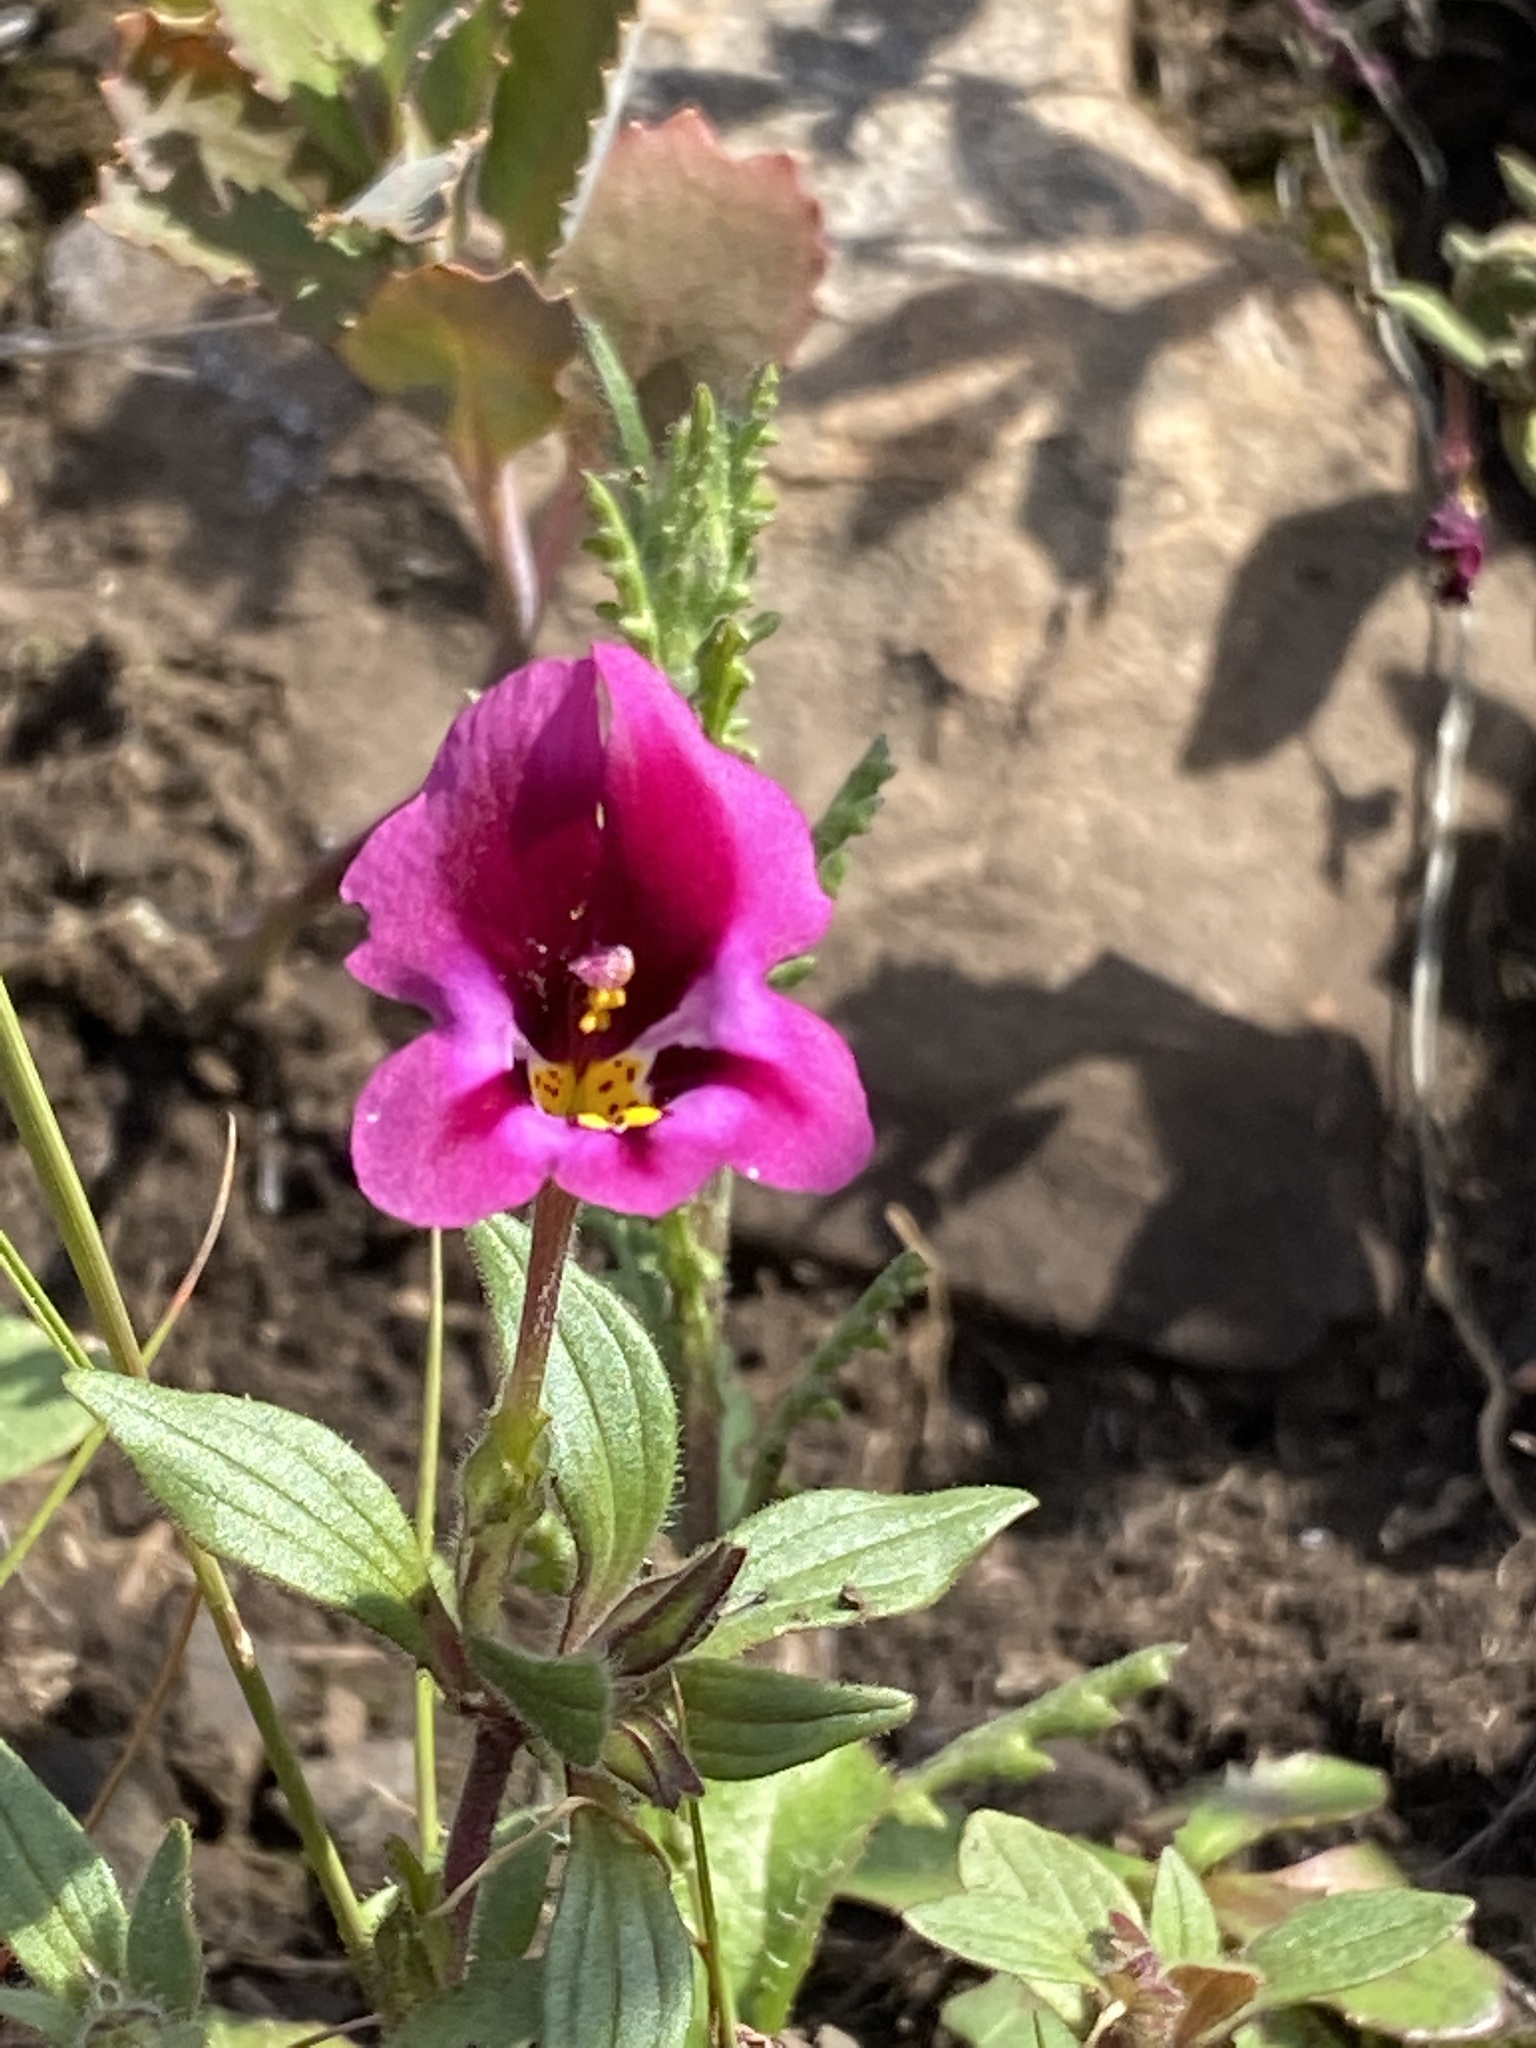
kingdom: Plantae
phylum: Tracheophyta
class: Magnoliopsida
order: Lamiales
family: Phrymaceae
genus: Diplacus
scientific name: Diplacus kelloggii
